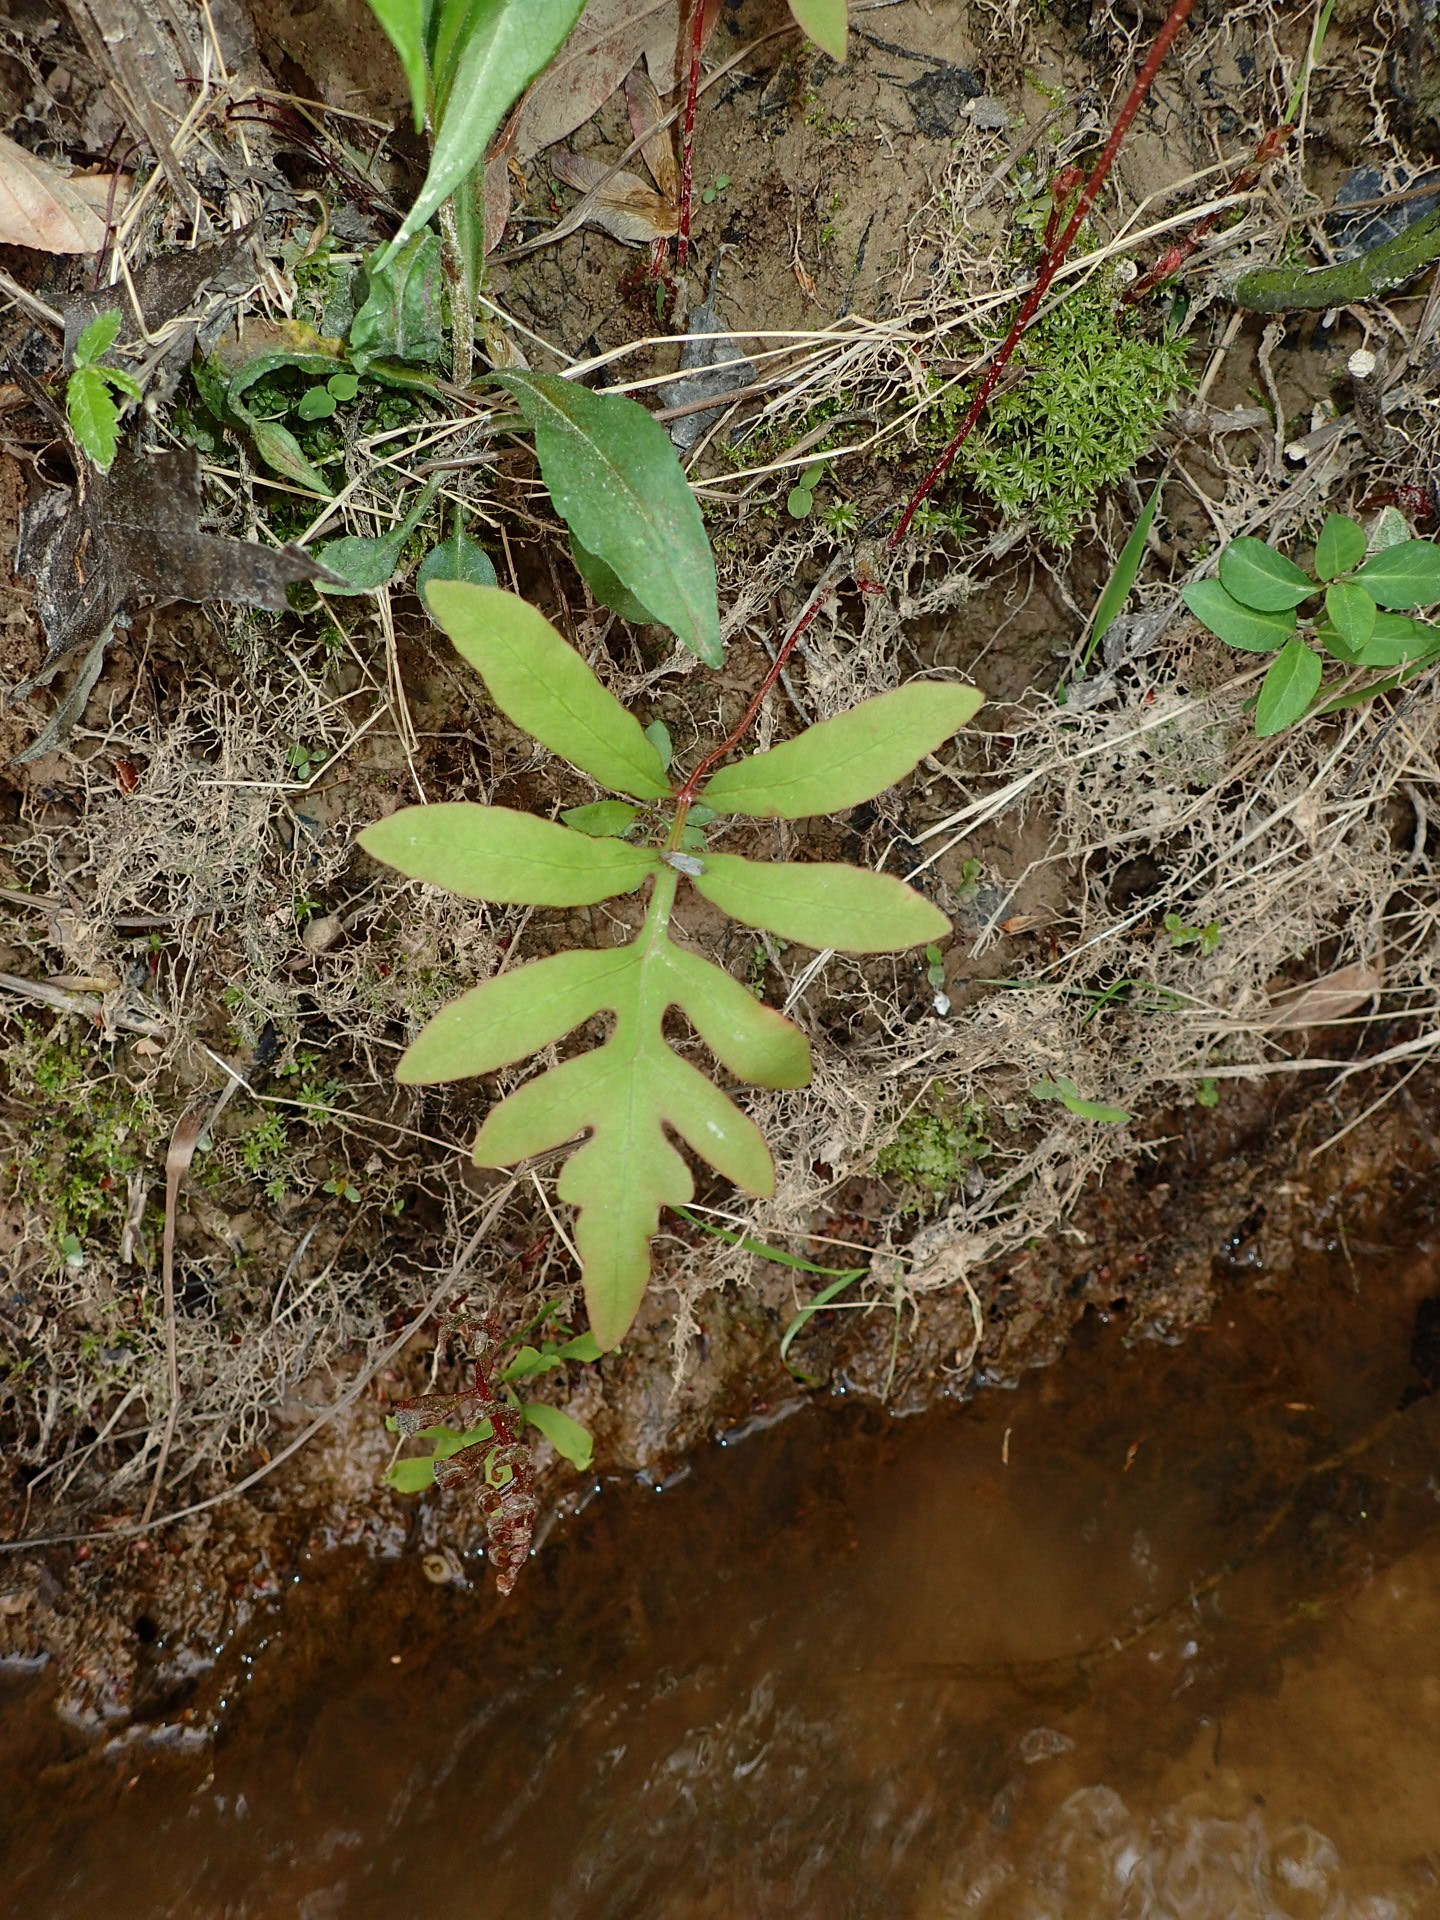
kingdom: Plantae
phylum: Tracheophyta
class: Polypodiopsida
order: Polypodiales
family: Onocleaceae
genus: Onoclea
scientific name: Onoclea sensibilis
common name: Sensitive fern
